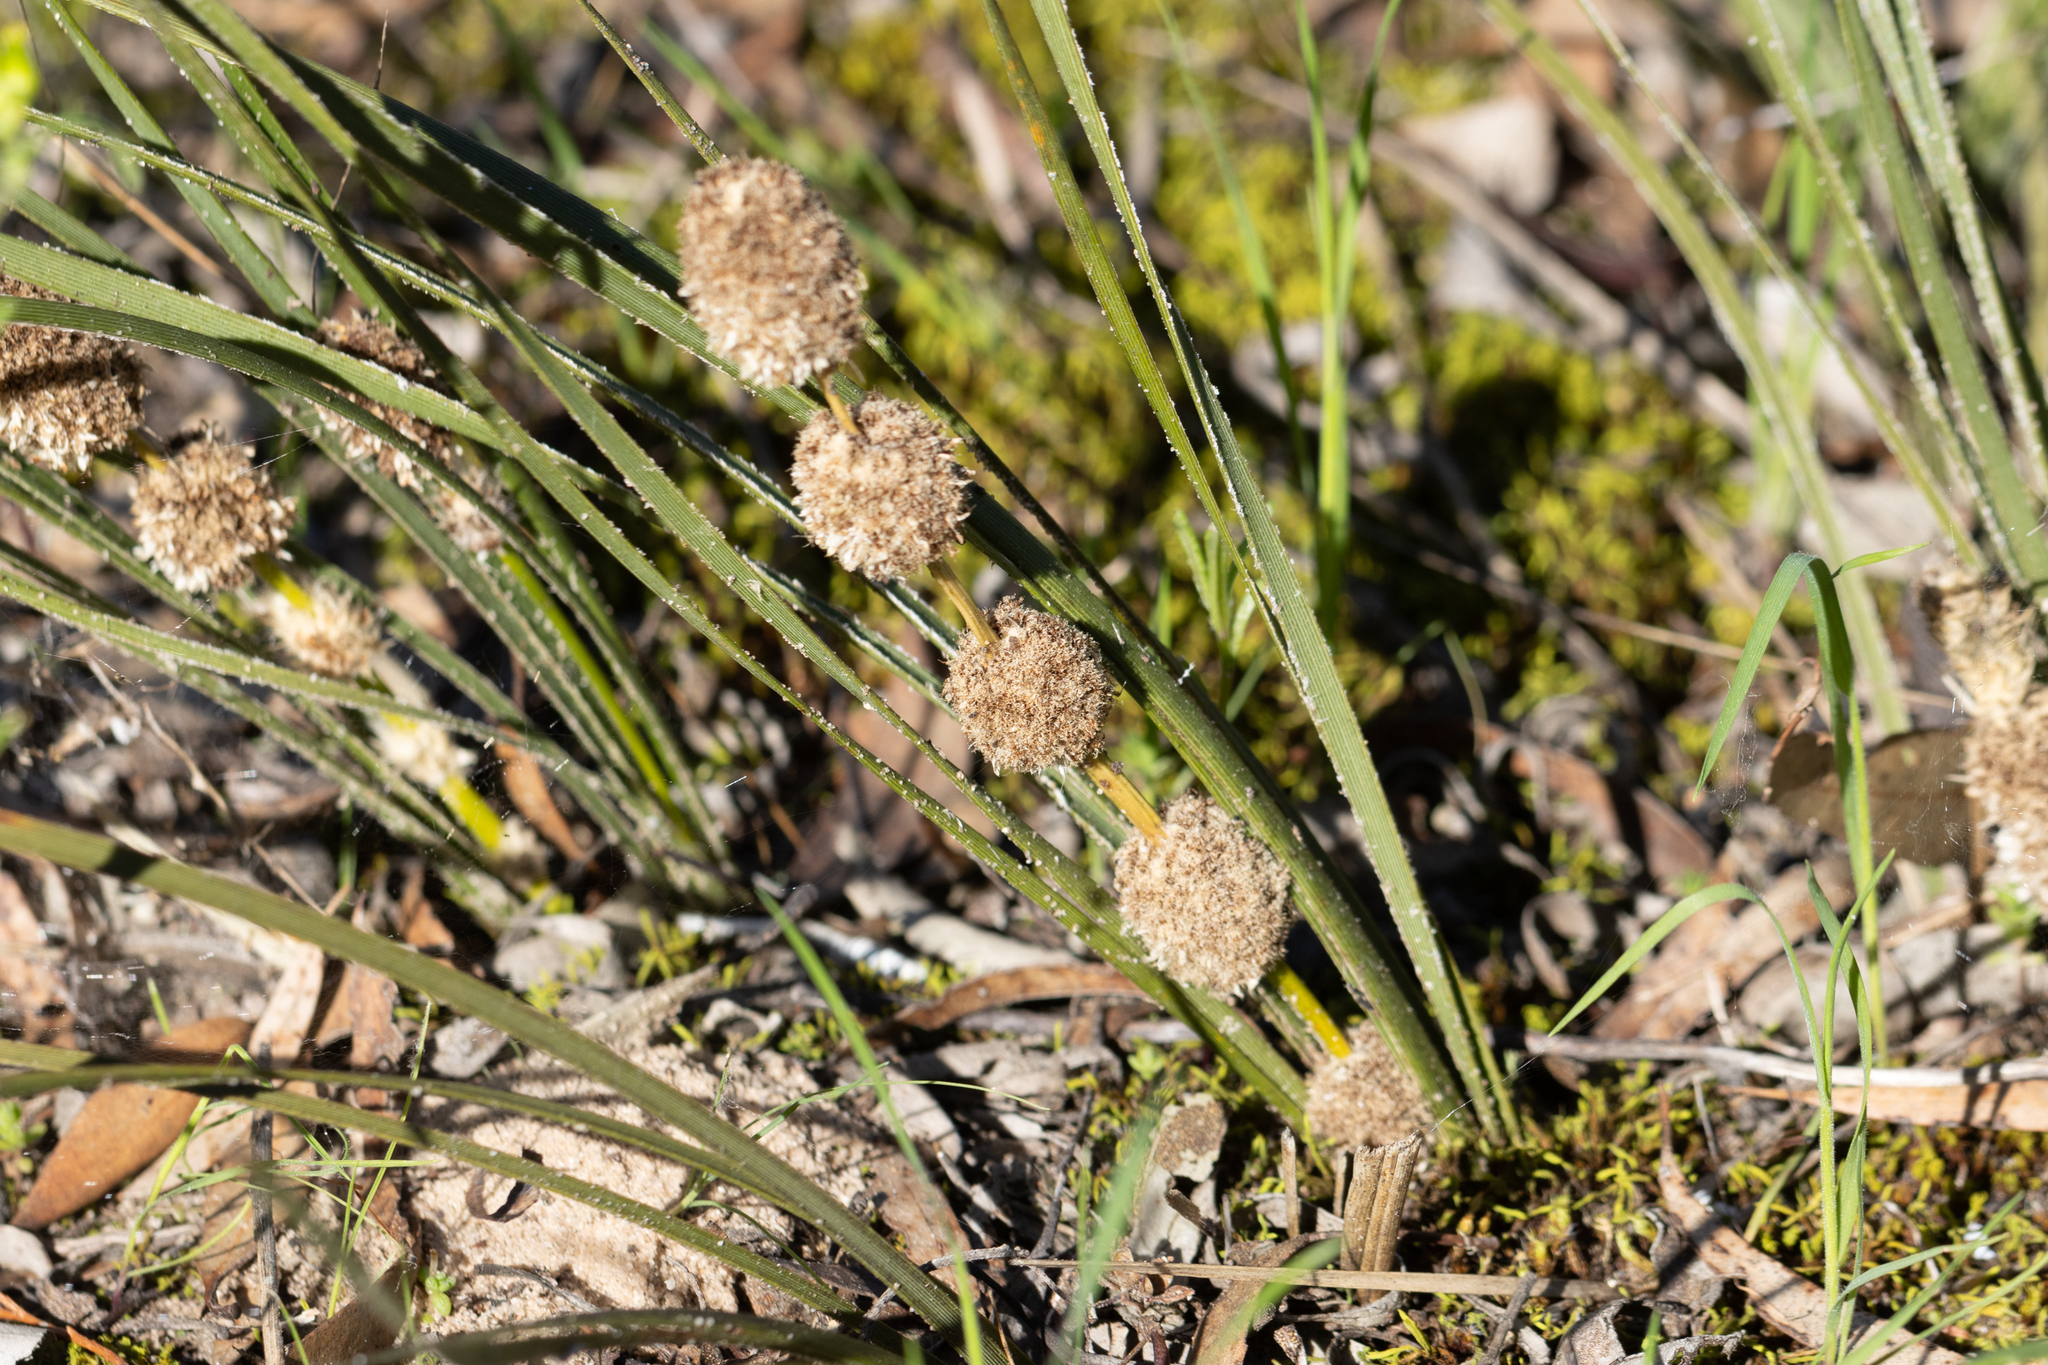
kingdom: Plantae
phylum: Tracheophyta
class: Liliopsida
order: Asparagales
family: Asparagaceae
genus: Lomandra
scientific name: Lomandra leucocephala
